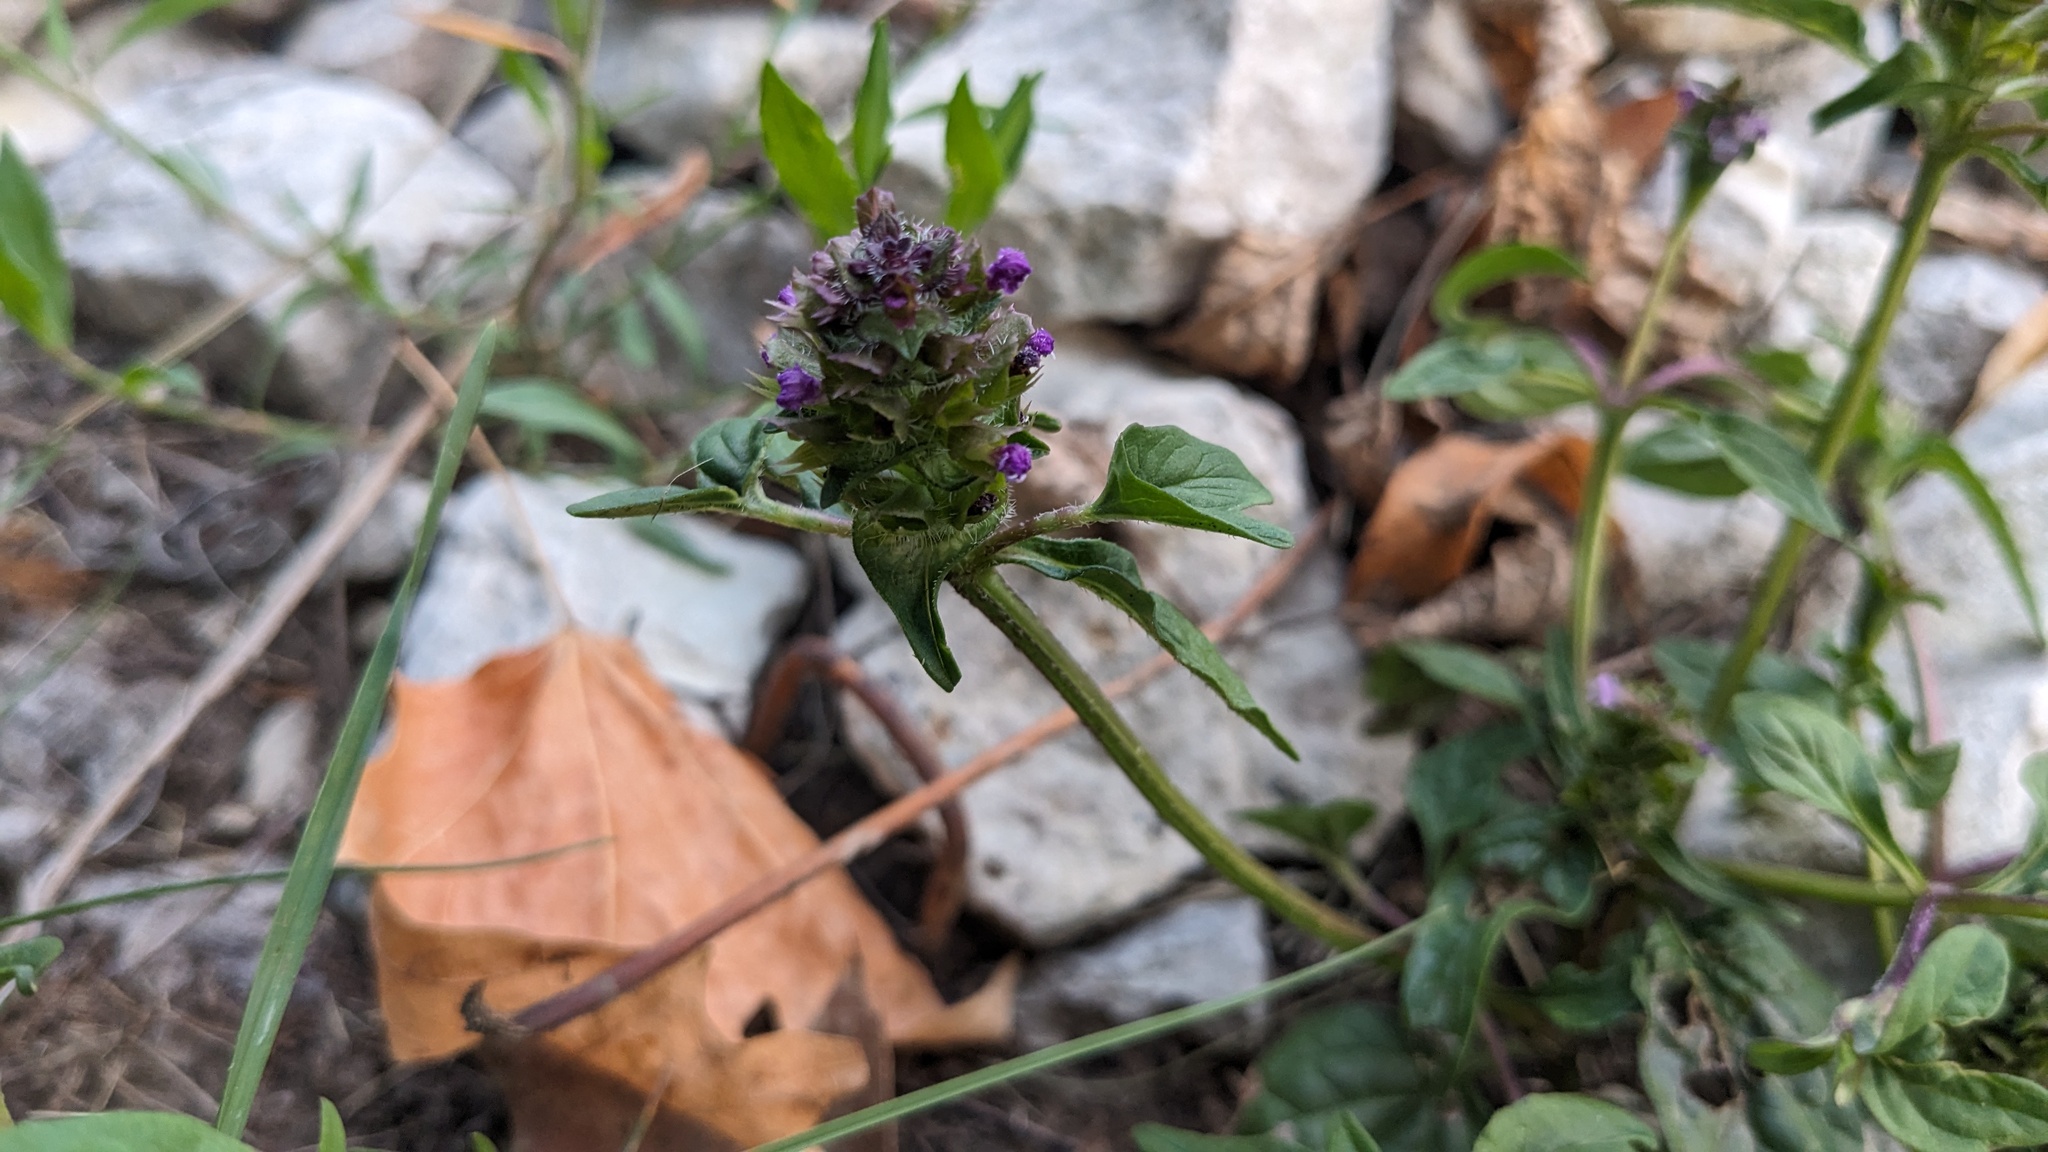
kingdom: Plantae
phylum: Tracheophyta
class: Magnoliopsida
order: Lamiales
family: Lamiaceae
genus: Prunella
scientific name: Prunella vulgaris
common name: Heal-all
